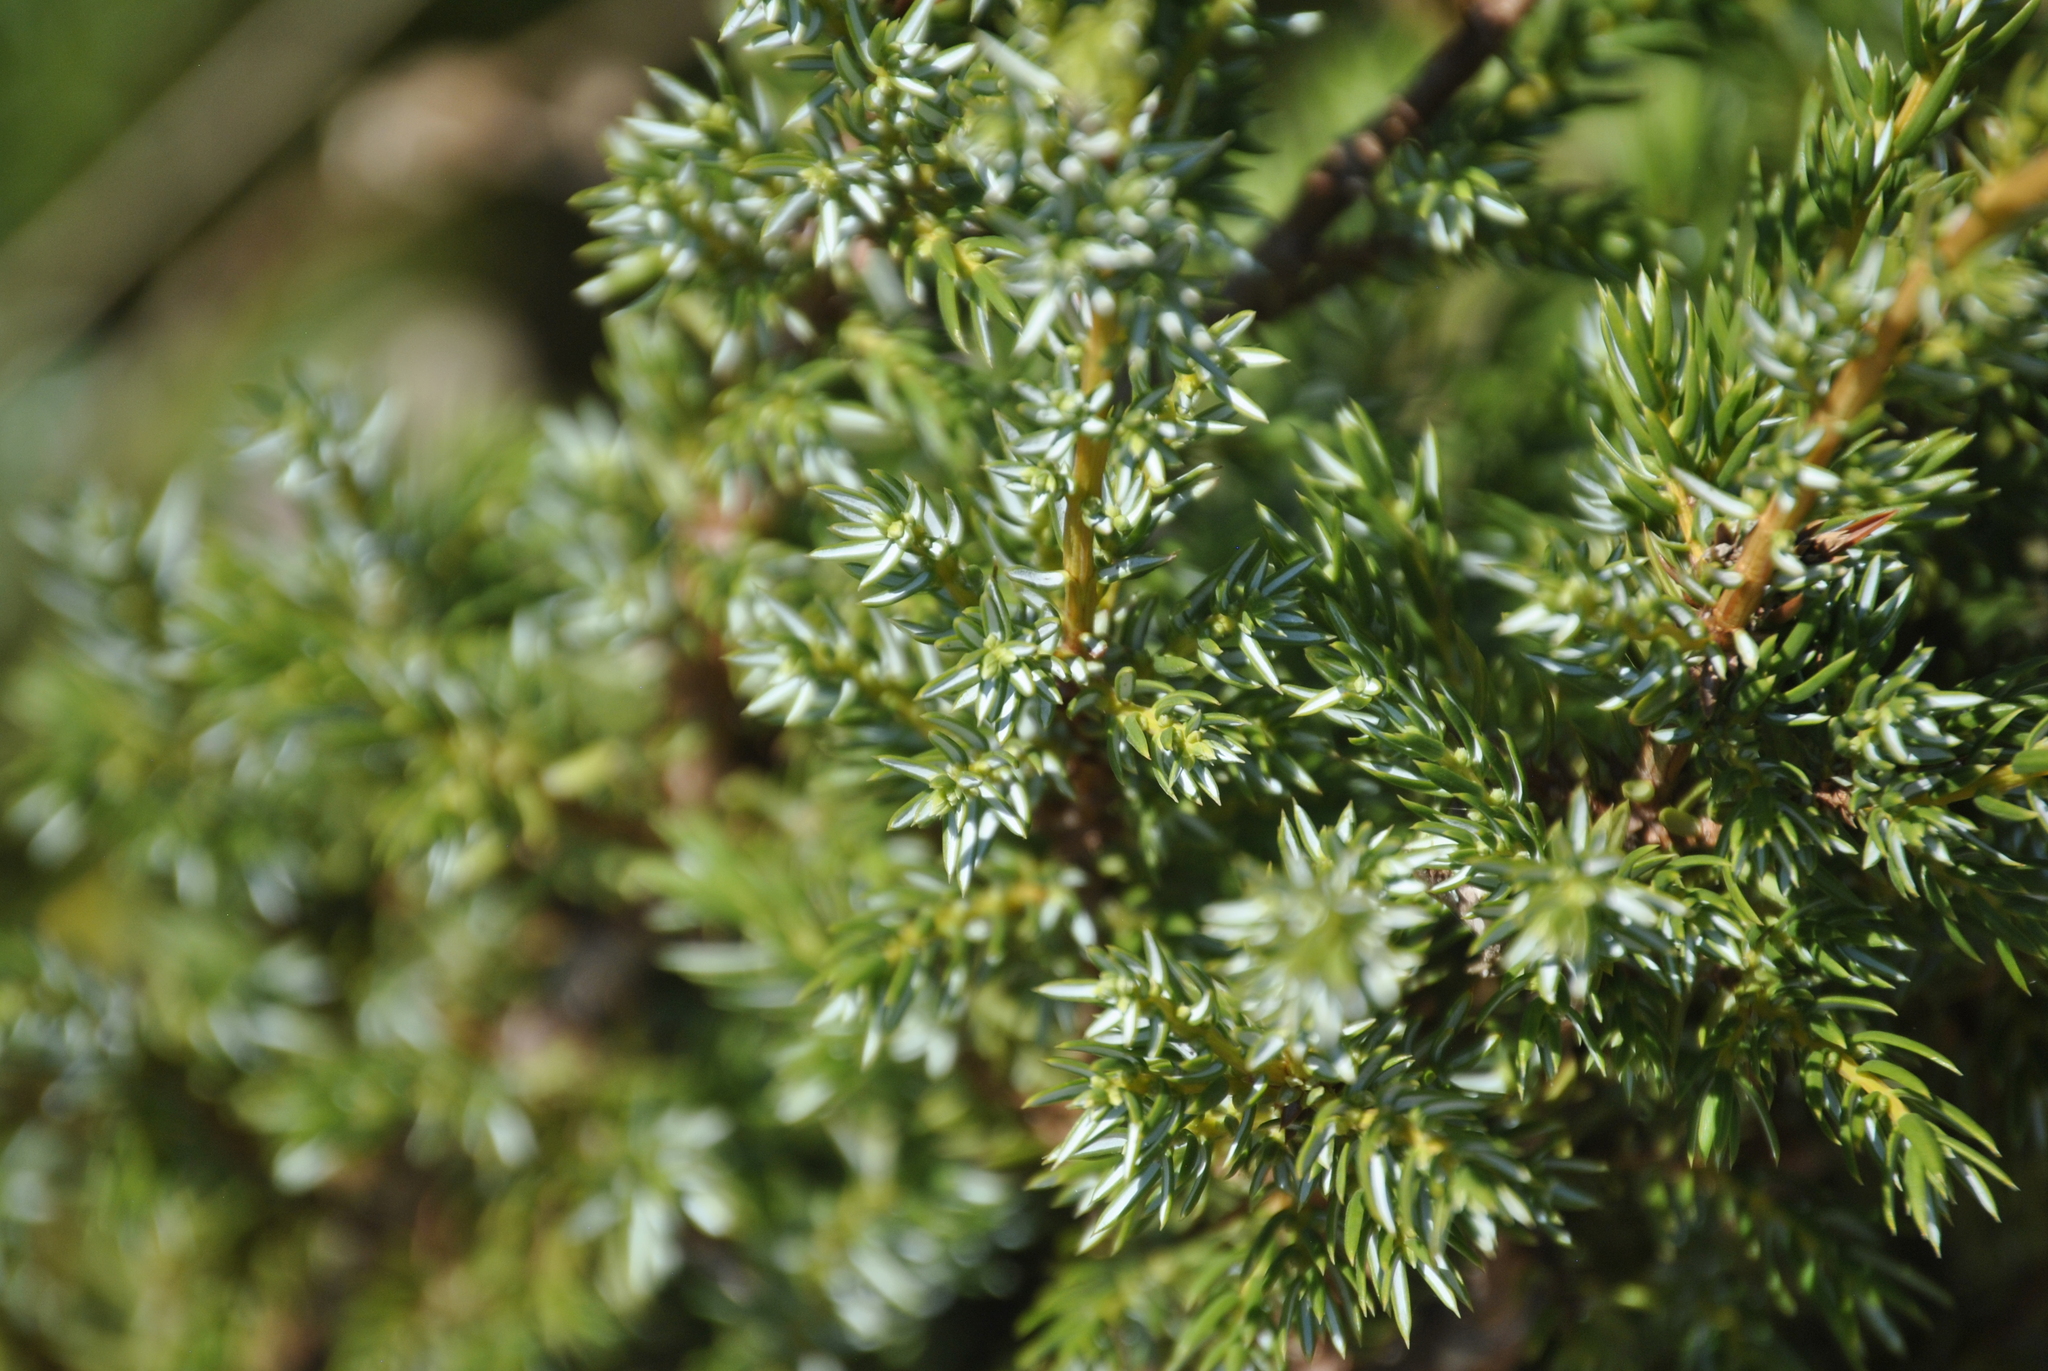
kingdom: Plantae
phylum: Tracheophyta
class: Pinopsida
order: Pinales
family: Cupressaceae
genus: Juniperus
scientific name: Juniperus communis
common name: Common juniper
